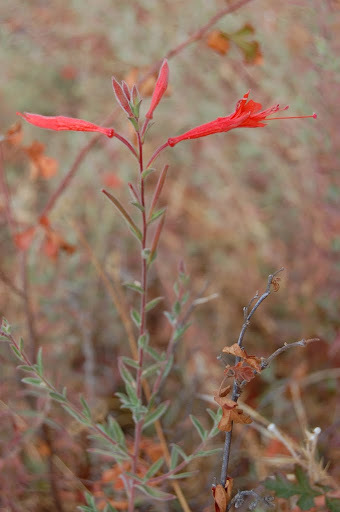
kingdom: Plantae
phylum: Tracheophyta
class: Magnoliopsida
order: Myrtales
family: Onagraceae
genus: Epilobium
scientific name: Epilobium canum
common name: California-fuchsia
